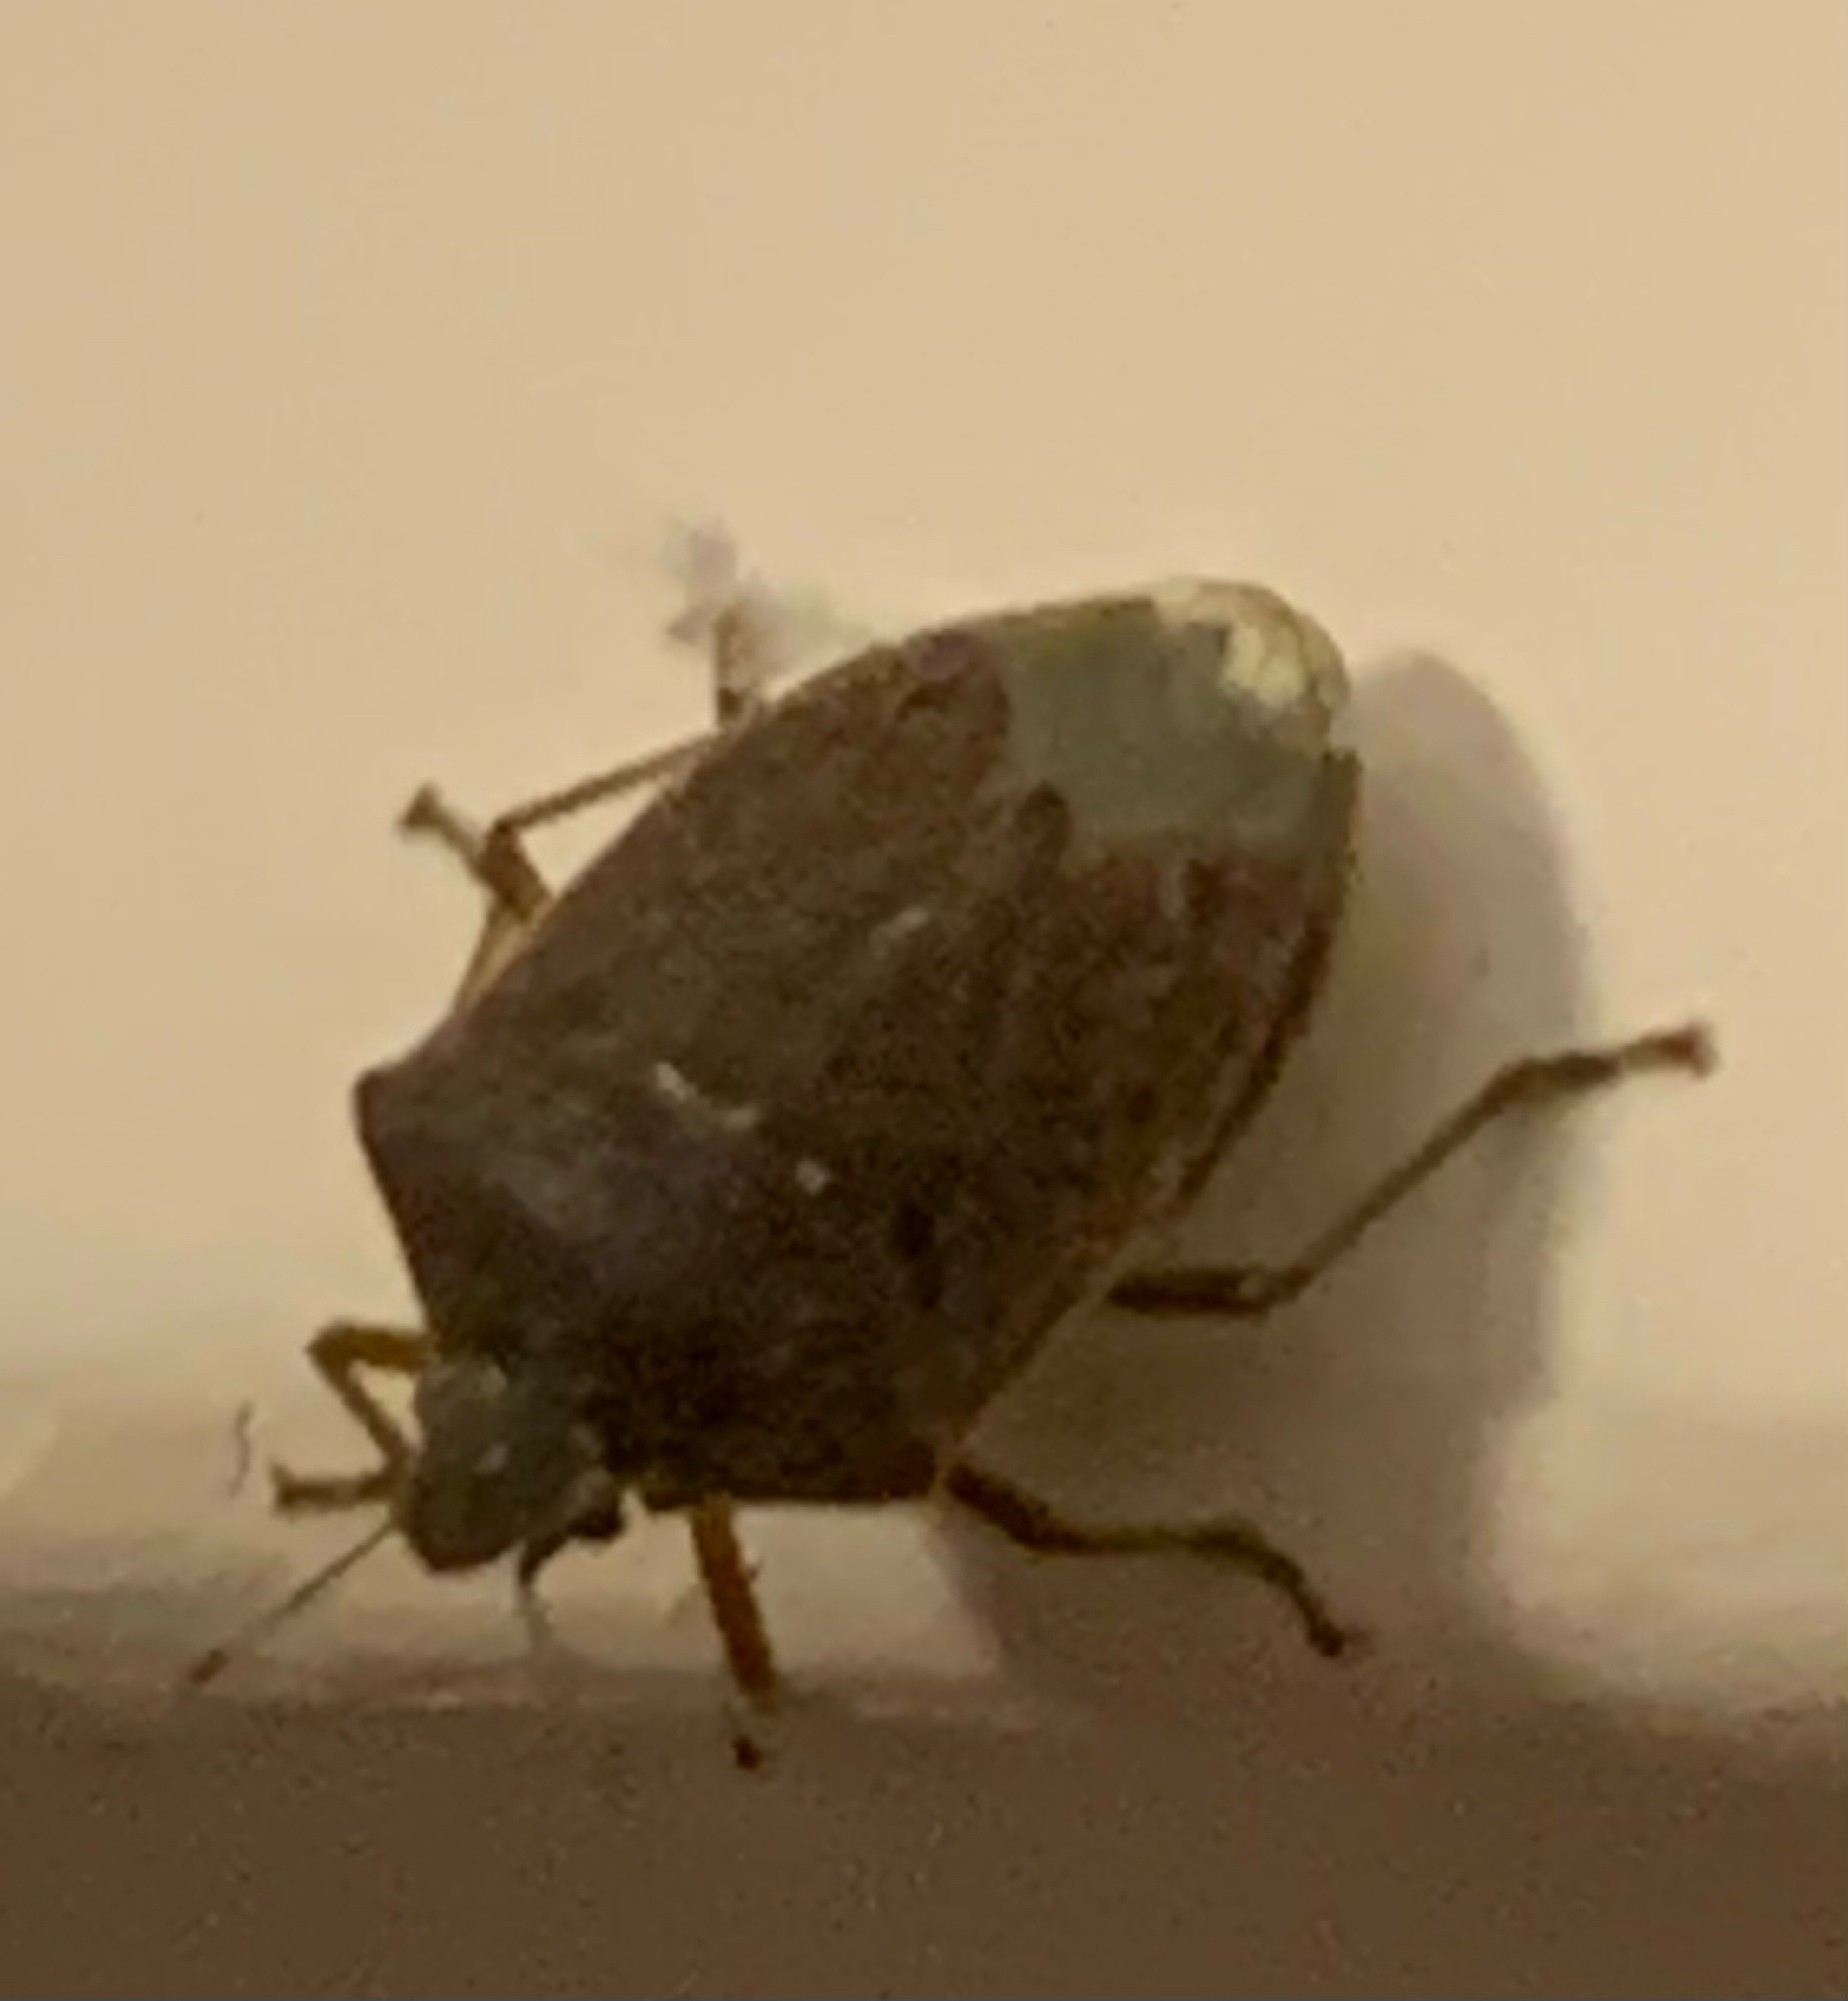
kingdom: Animalia
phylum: Arthropoda
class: Insecta
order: Hemiptera
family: Pentatomidae
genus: Nezara
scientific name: Nezara viridula
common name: Southern green stink bug
